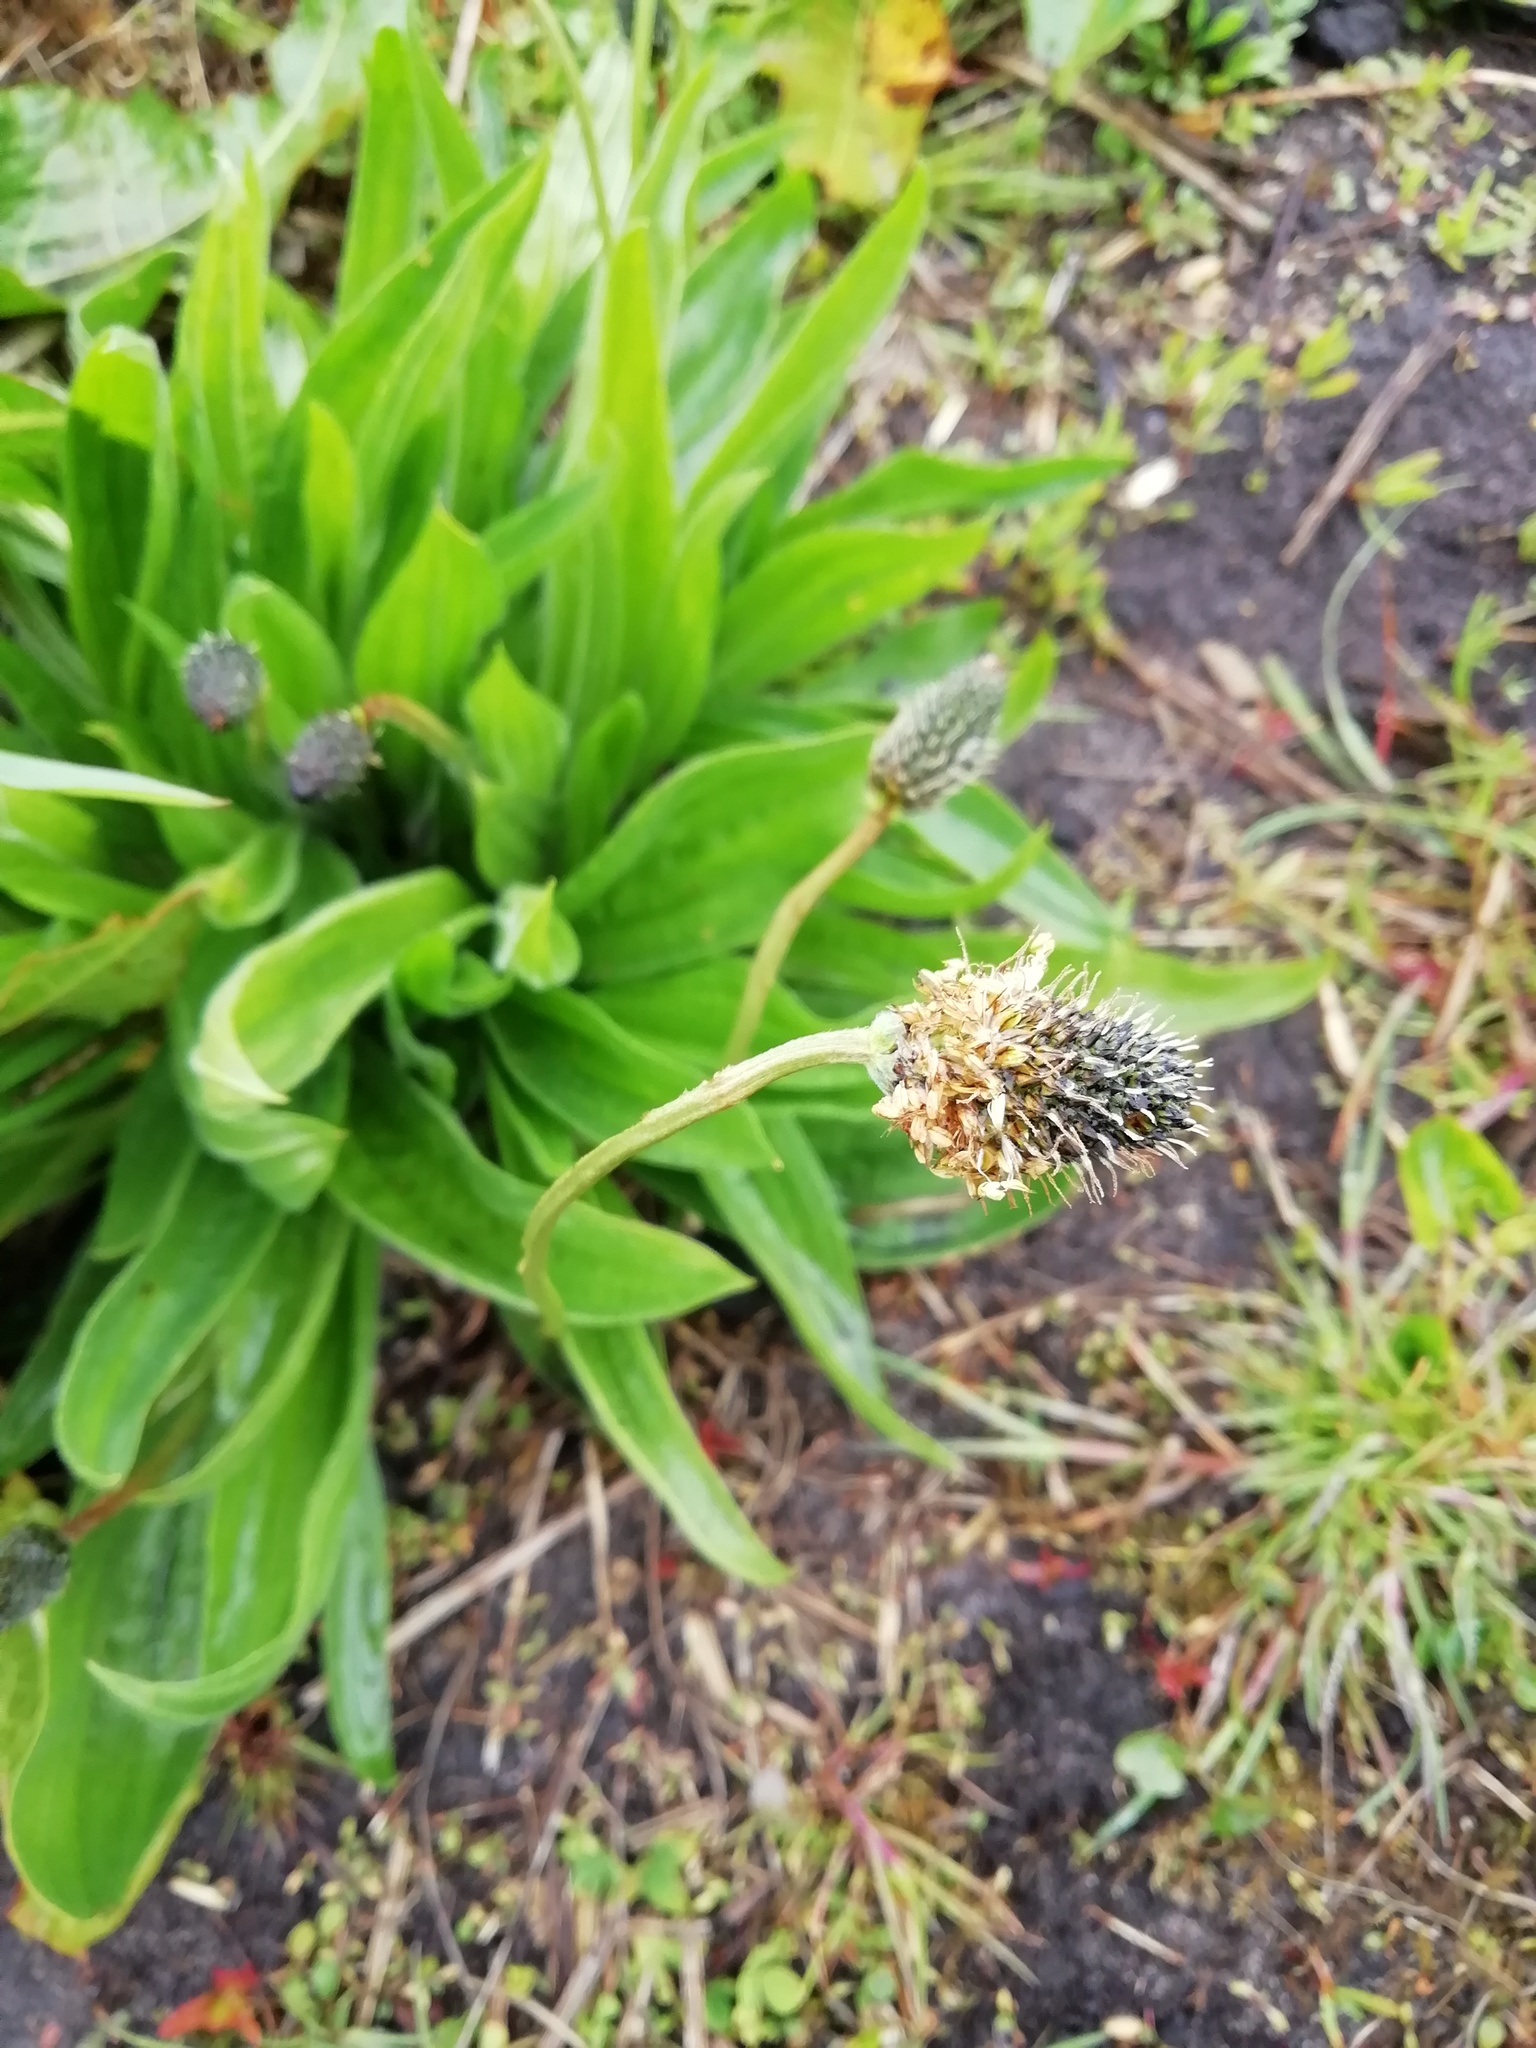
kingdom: Plantae
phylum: Tracheophyta
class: Magnoliopsida
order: Lamiales
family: Plantaginaceae
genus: Plantago
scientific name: Plantago lanceolata
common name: Ribwort plantain
